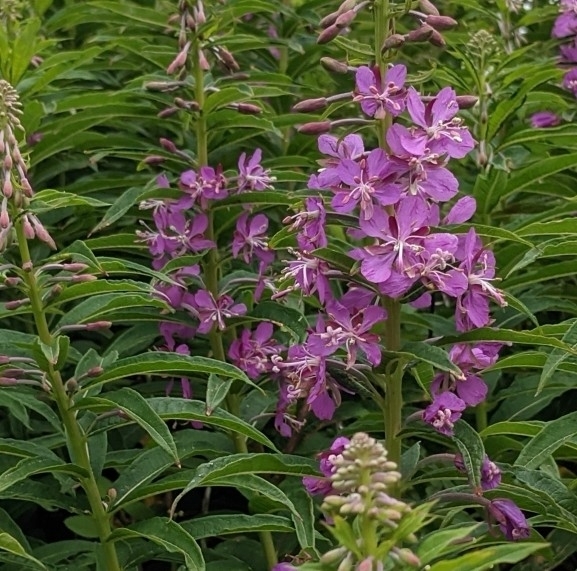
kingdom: Plantae
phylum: Tracheophyta
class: Magnoliopsida
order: Myrtales
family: Onagraceae
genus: Chamaenerion
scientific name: Chamaenerion angustifolium
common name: Fireweed
